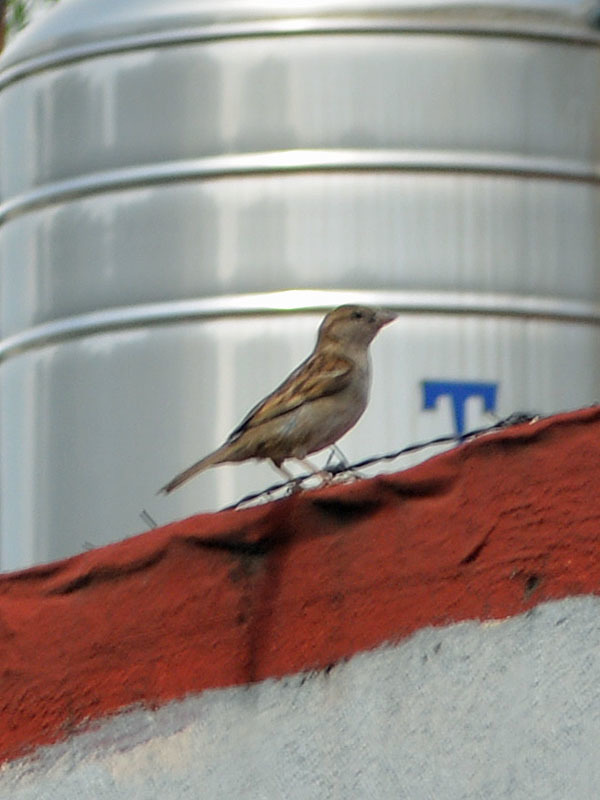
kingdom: Animalia
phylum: Chordata
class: Aves
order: Passeriformes
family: Passeridae
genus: Passer
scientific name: Passer domesticus
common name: House sparrow
